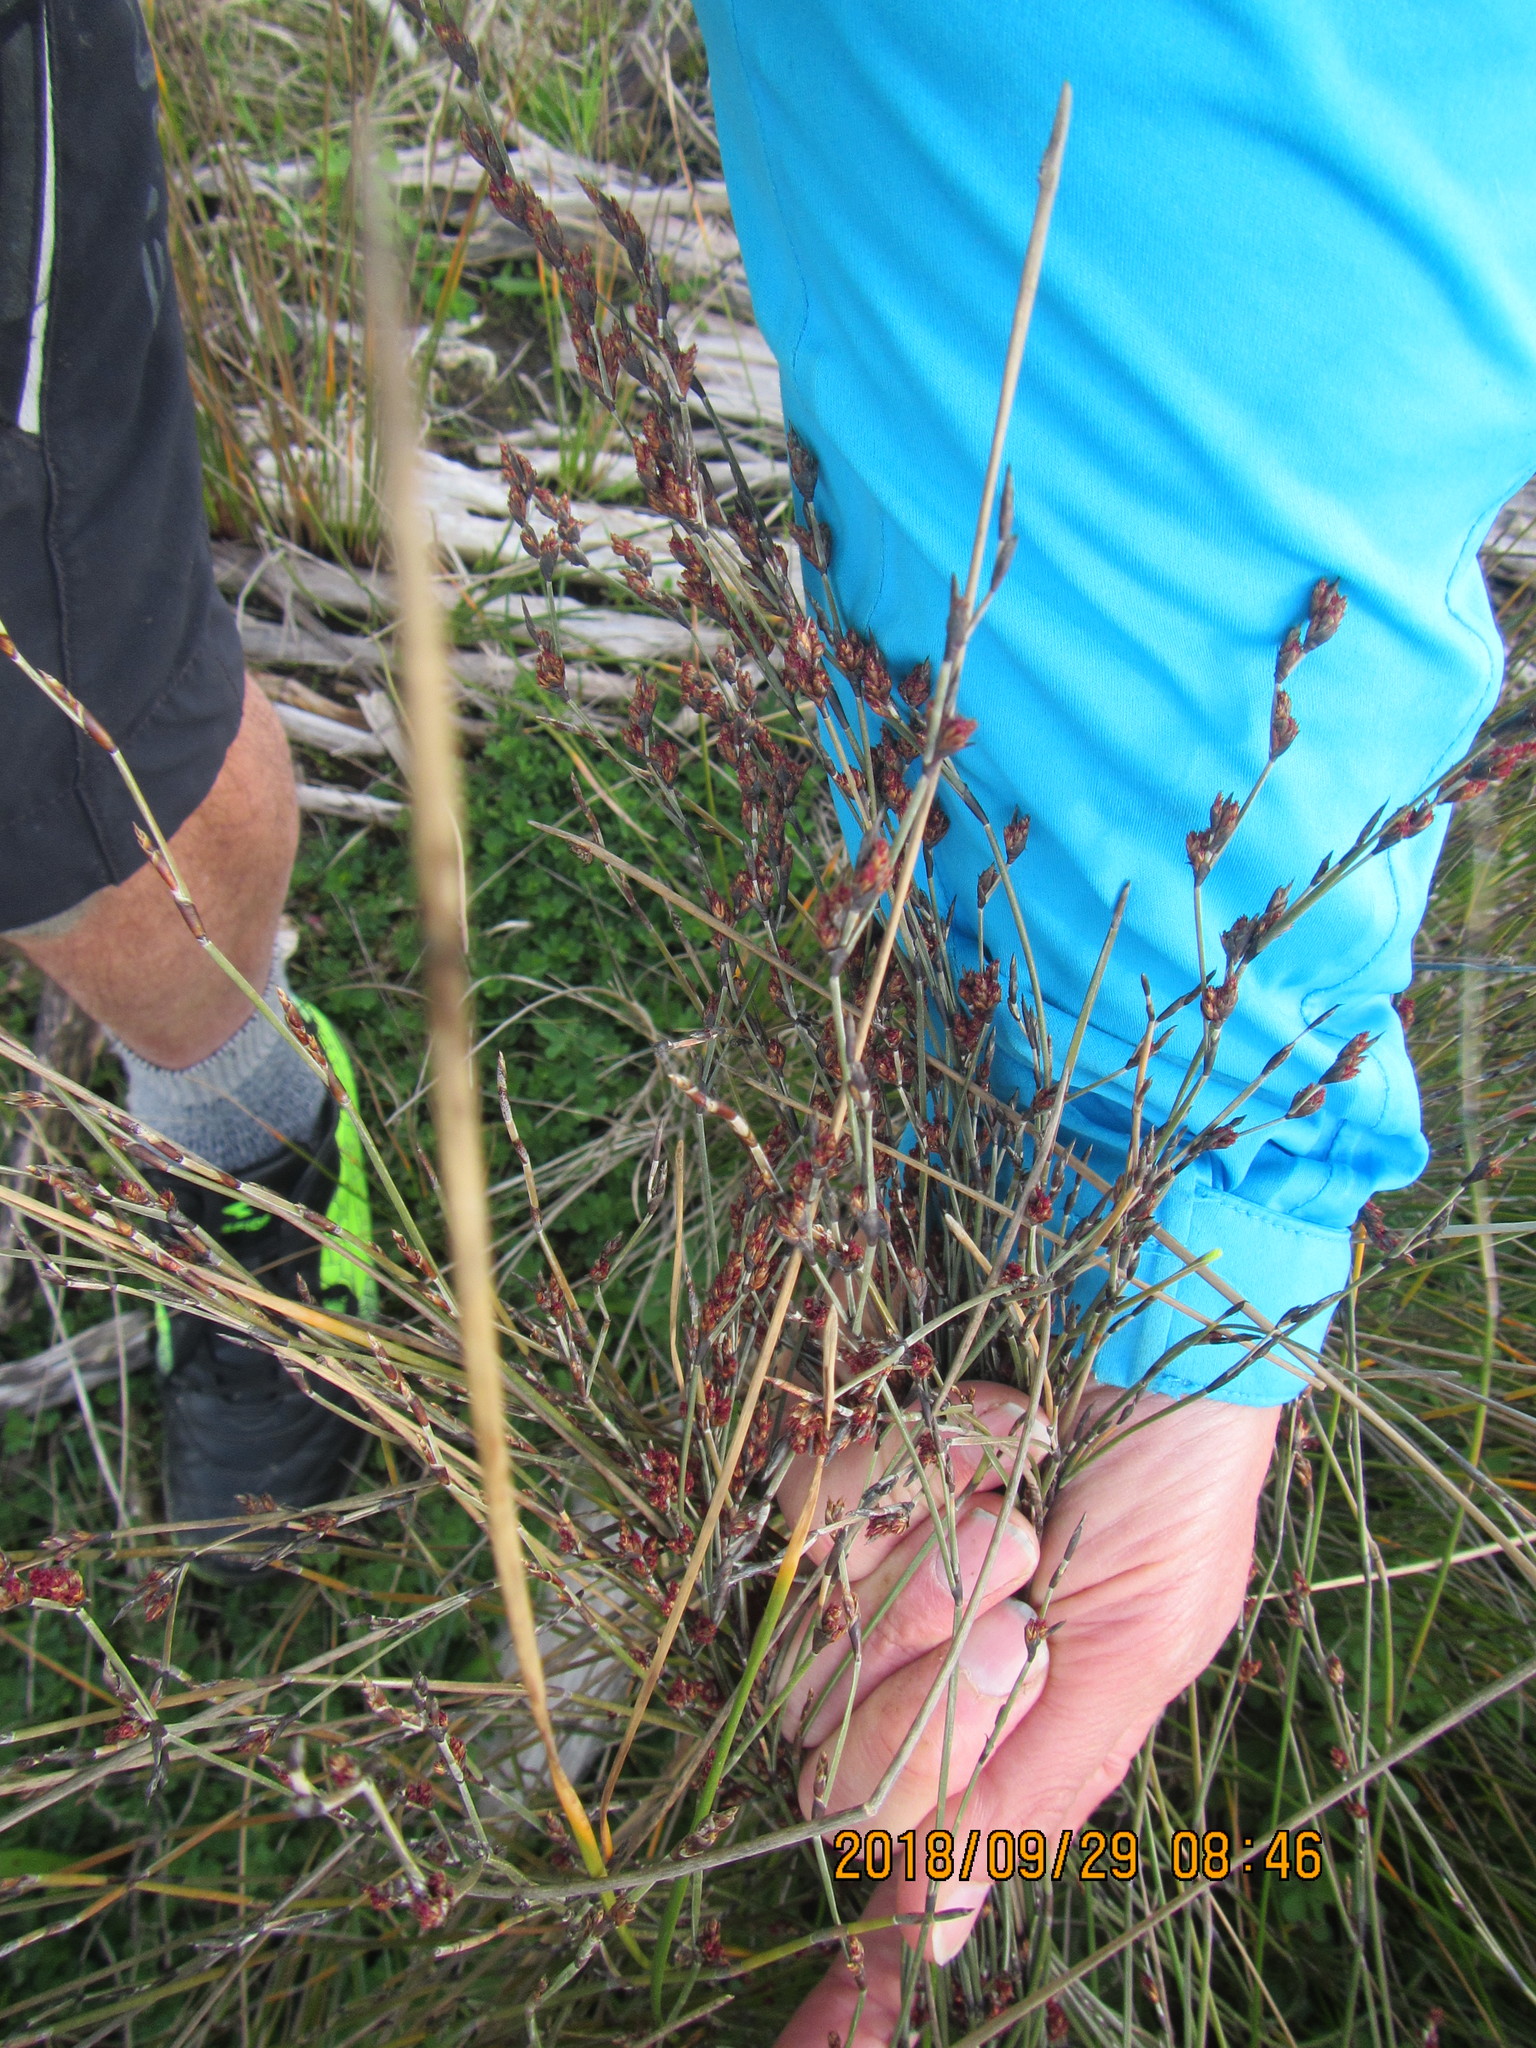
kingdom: Plantae
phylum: Tracheophyta
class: Liliopsida
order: Poales
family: Restionaceae
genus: Apodasmia
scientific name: Apodasmia similis
